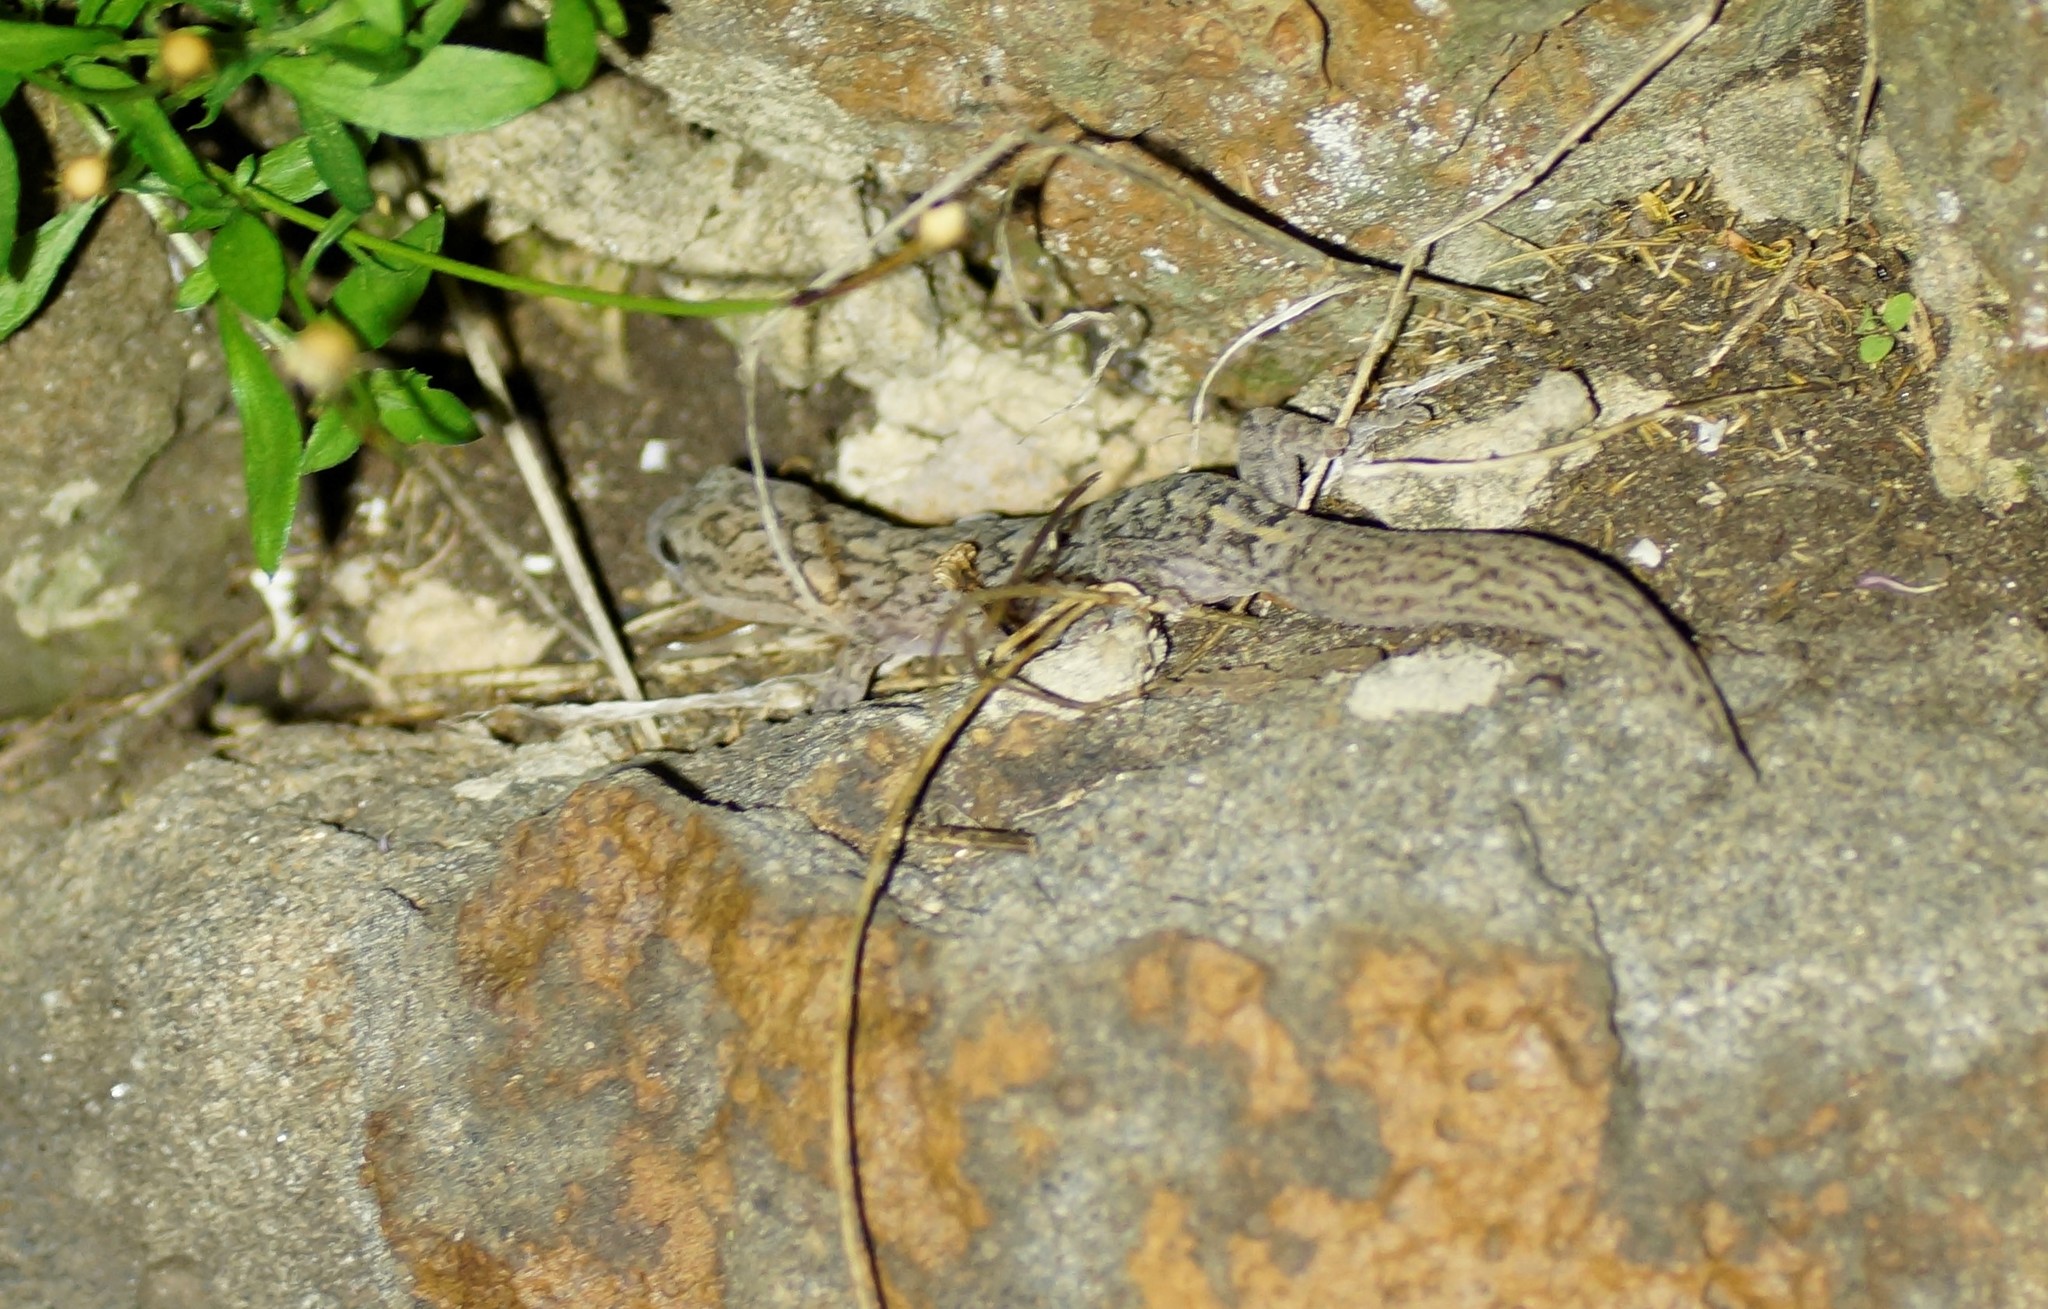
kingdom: Animalia
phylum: Chordata
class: Squamata
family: Gekkonidae
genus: Christinus
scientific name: Christinus marmoratus
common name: Marbled gecko
